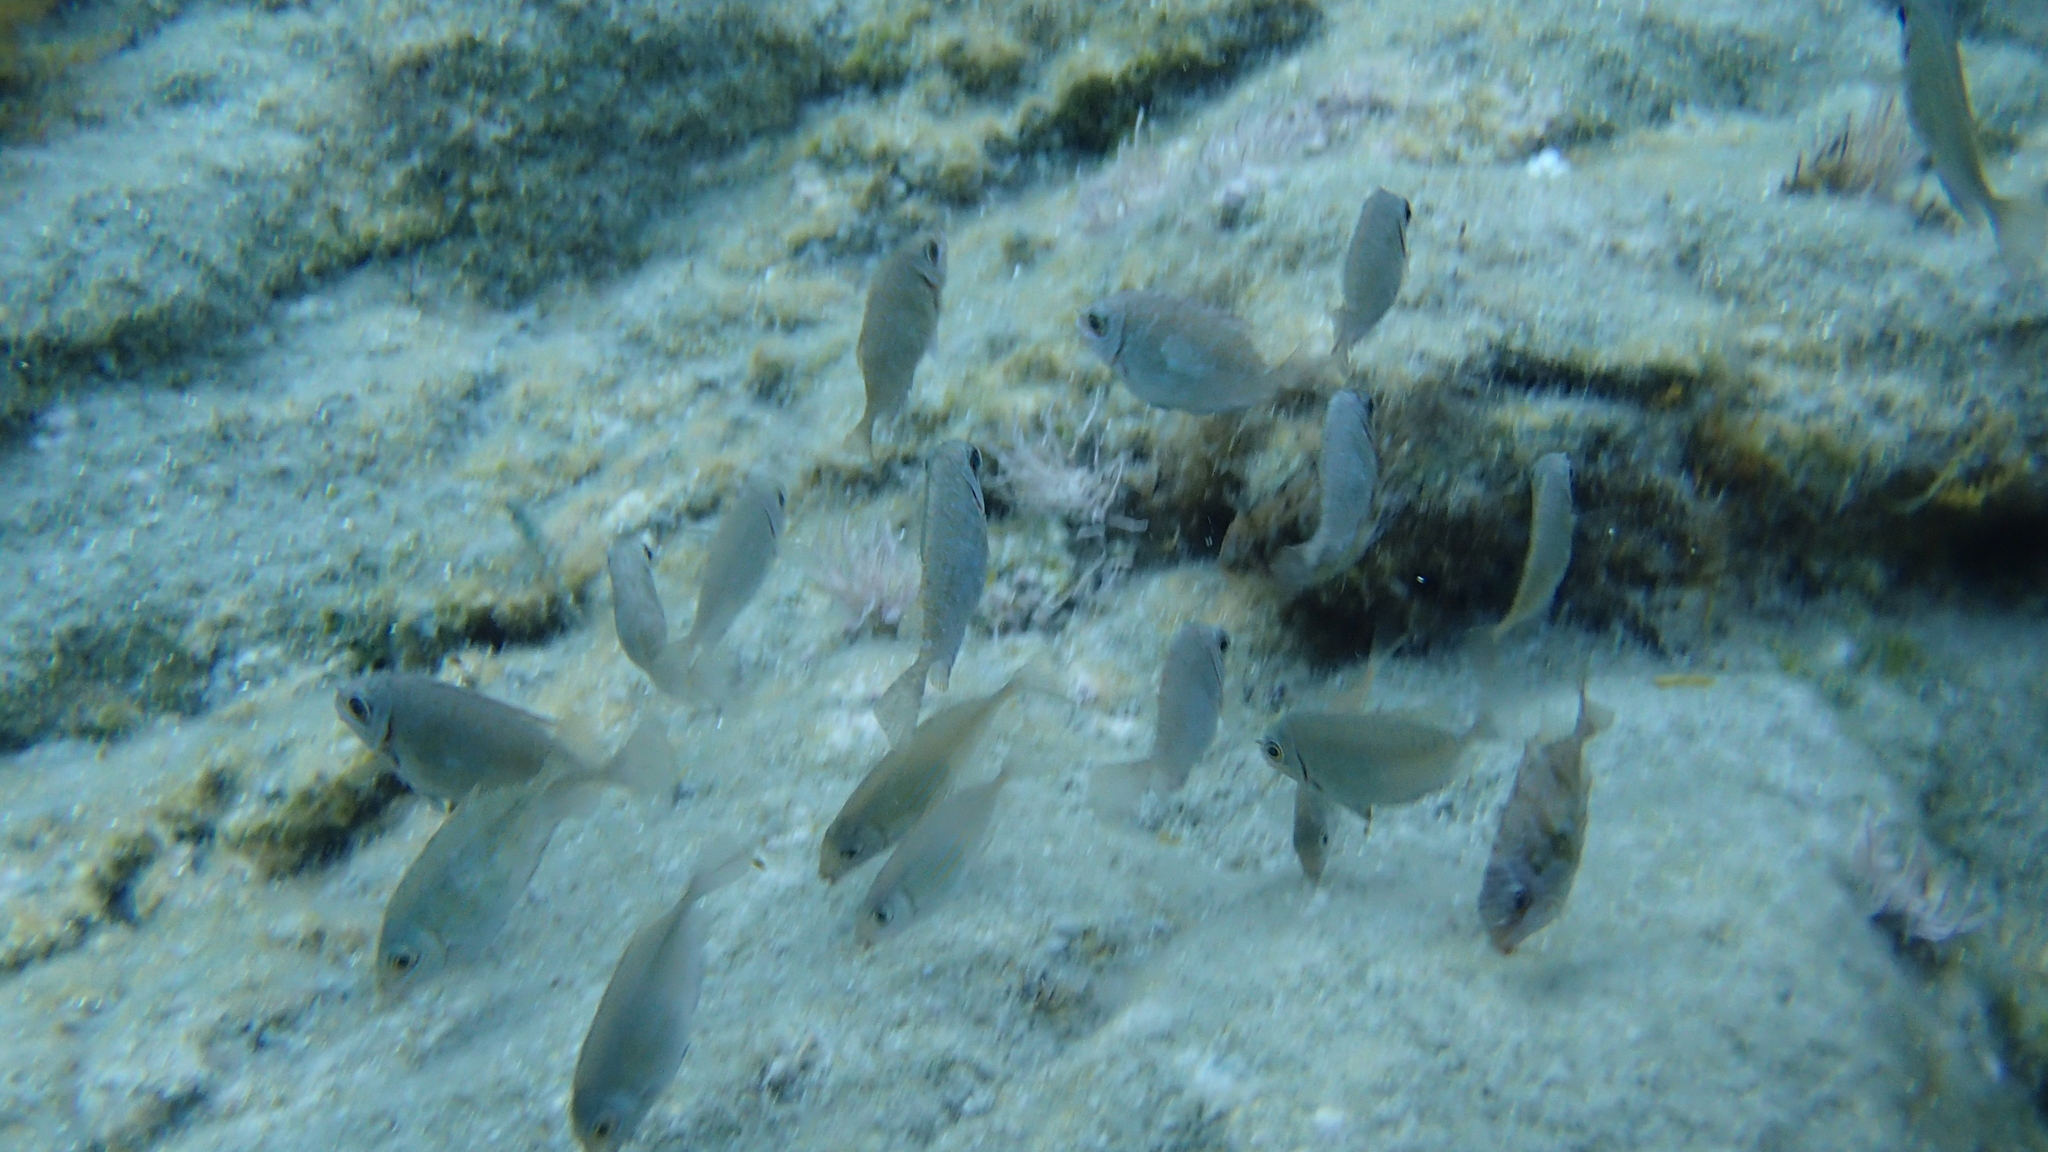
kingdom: Animalia
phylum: Chordata
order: Perciformes
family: Siganidae
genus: Siganus
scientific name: Siganus
